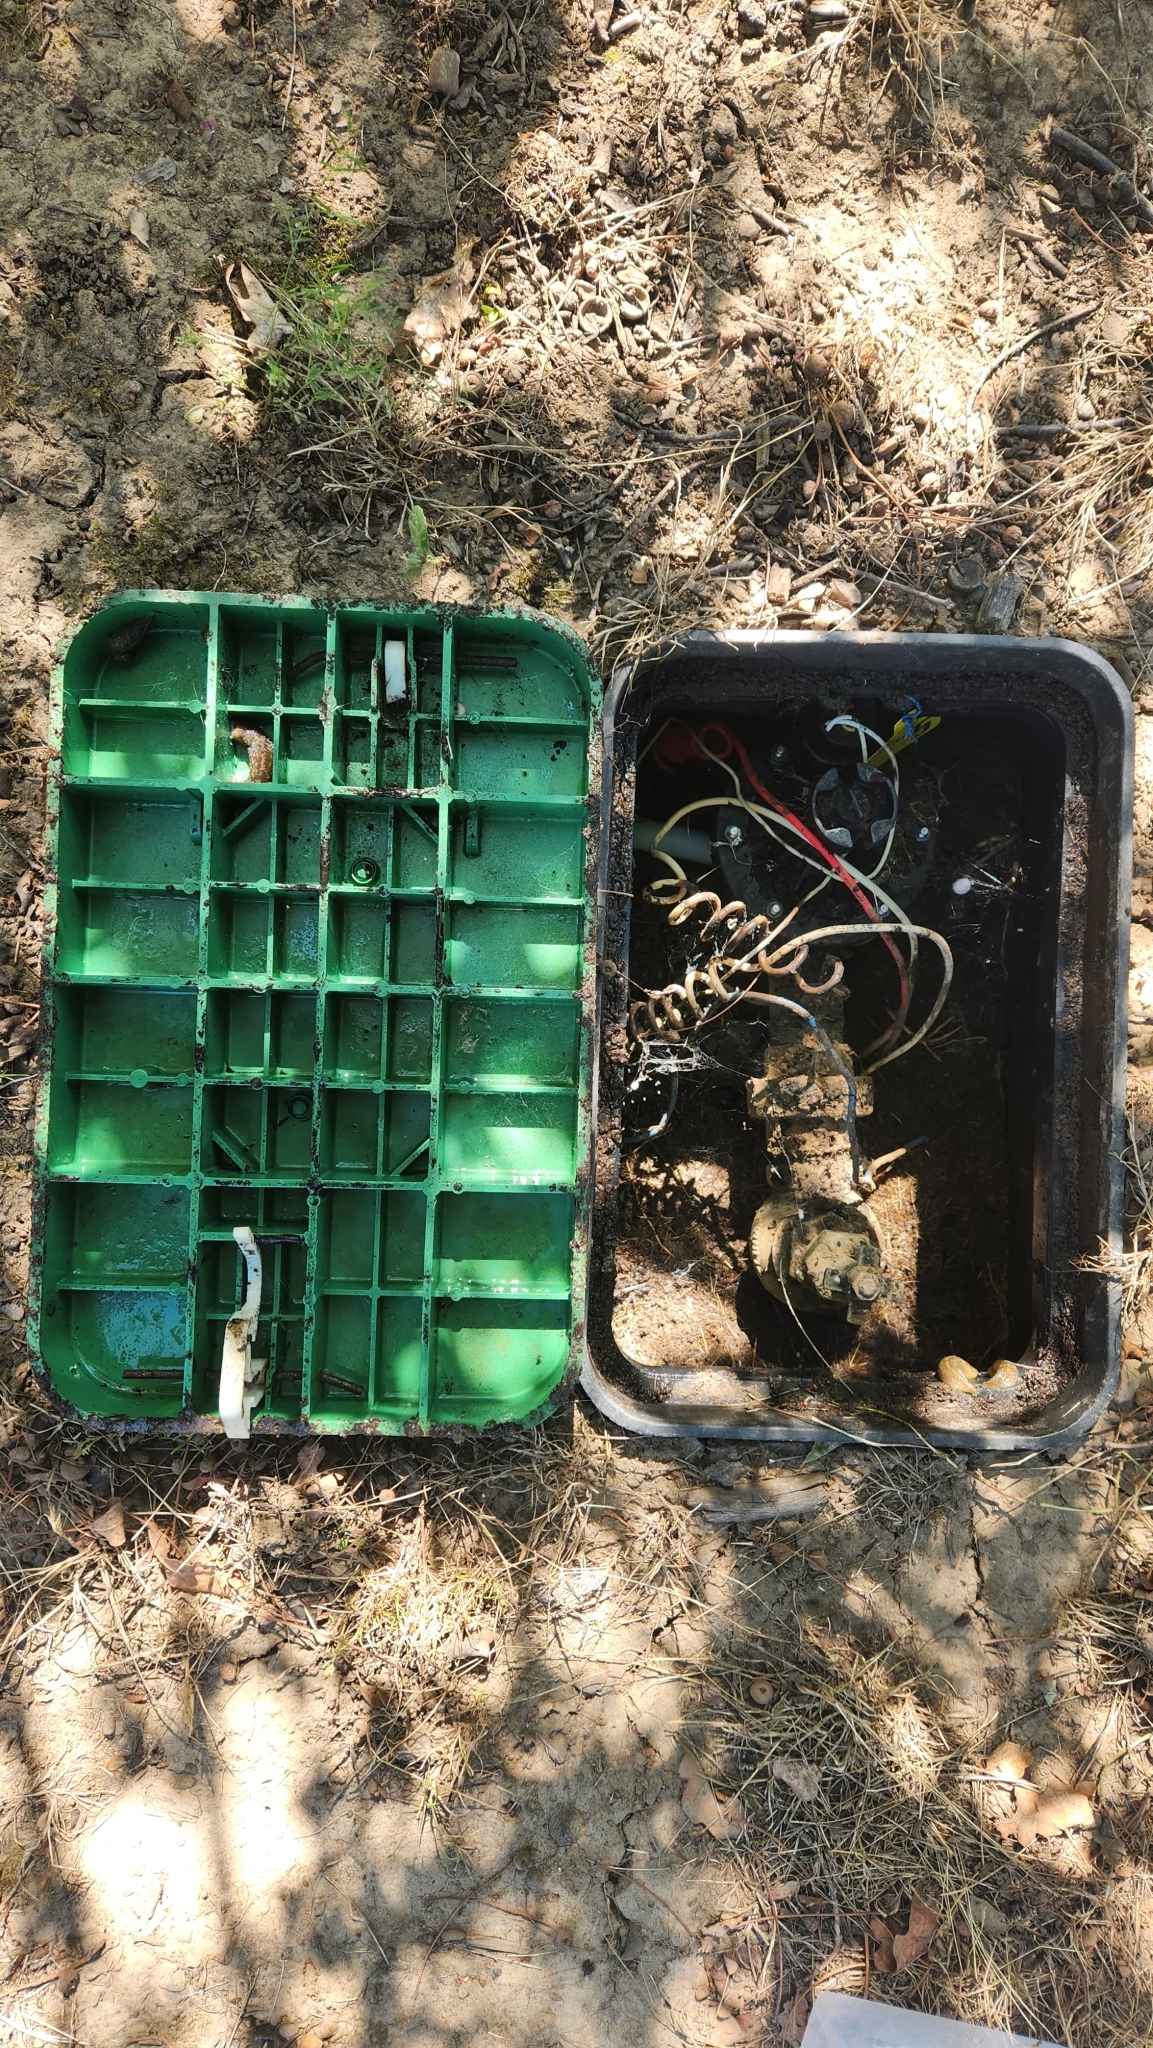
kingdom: Animalia
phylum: Mollusca
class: Gastropoda
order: Stylommatophora
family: Limacidae
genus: Limacus
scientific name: Limacus flavus
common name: Yellow gardenslug
